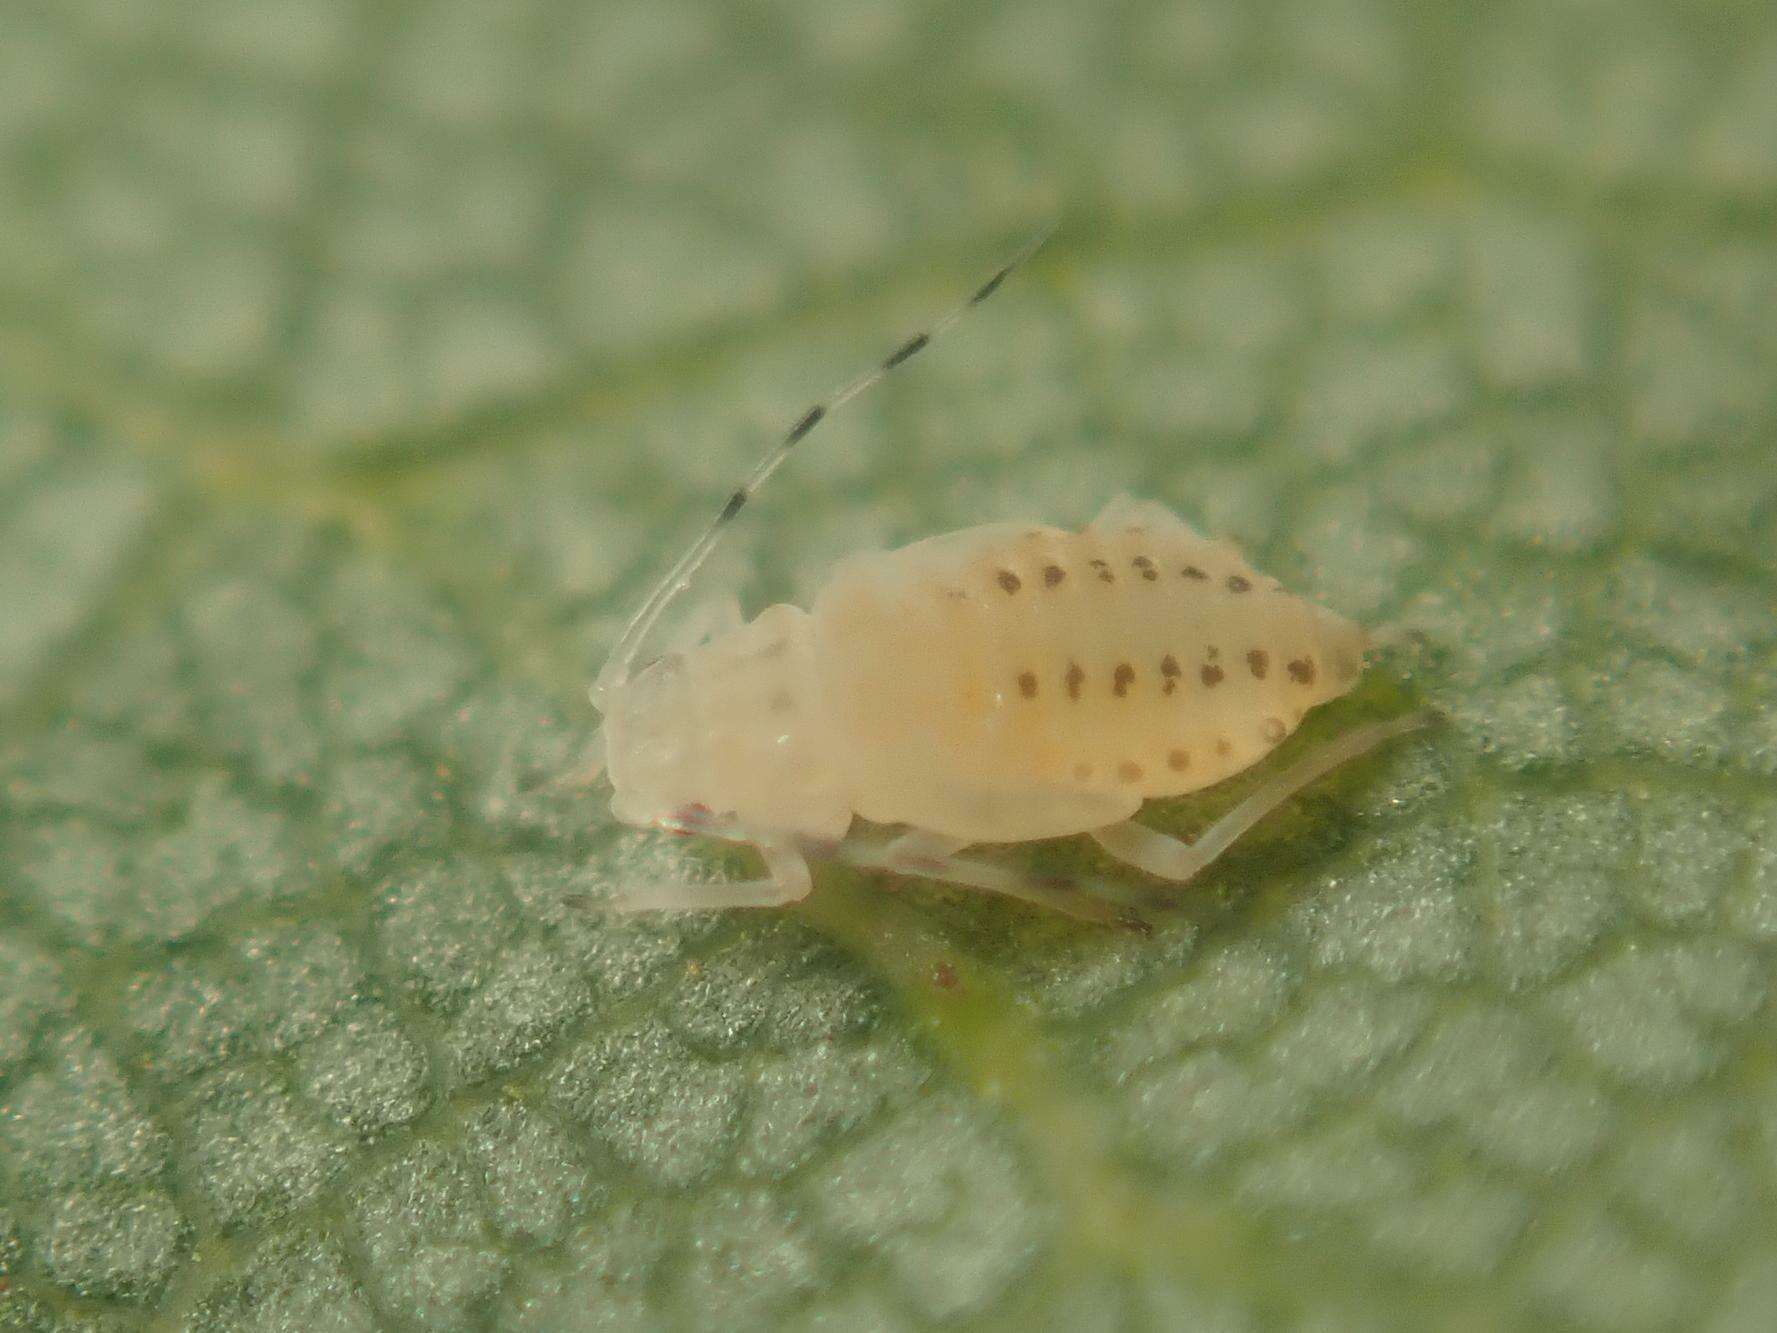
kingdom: Animalia
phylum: Arthropoda
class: Insecta
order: Hemiptera
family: Aphididae
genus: Eucallipterus
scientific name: Eucallipterus tiliae
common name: Aphid
